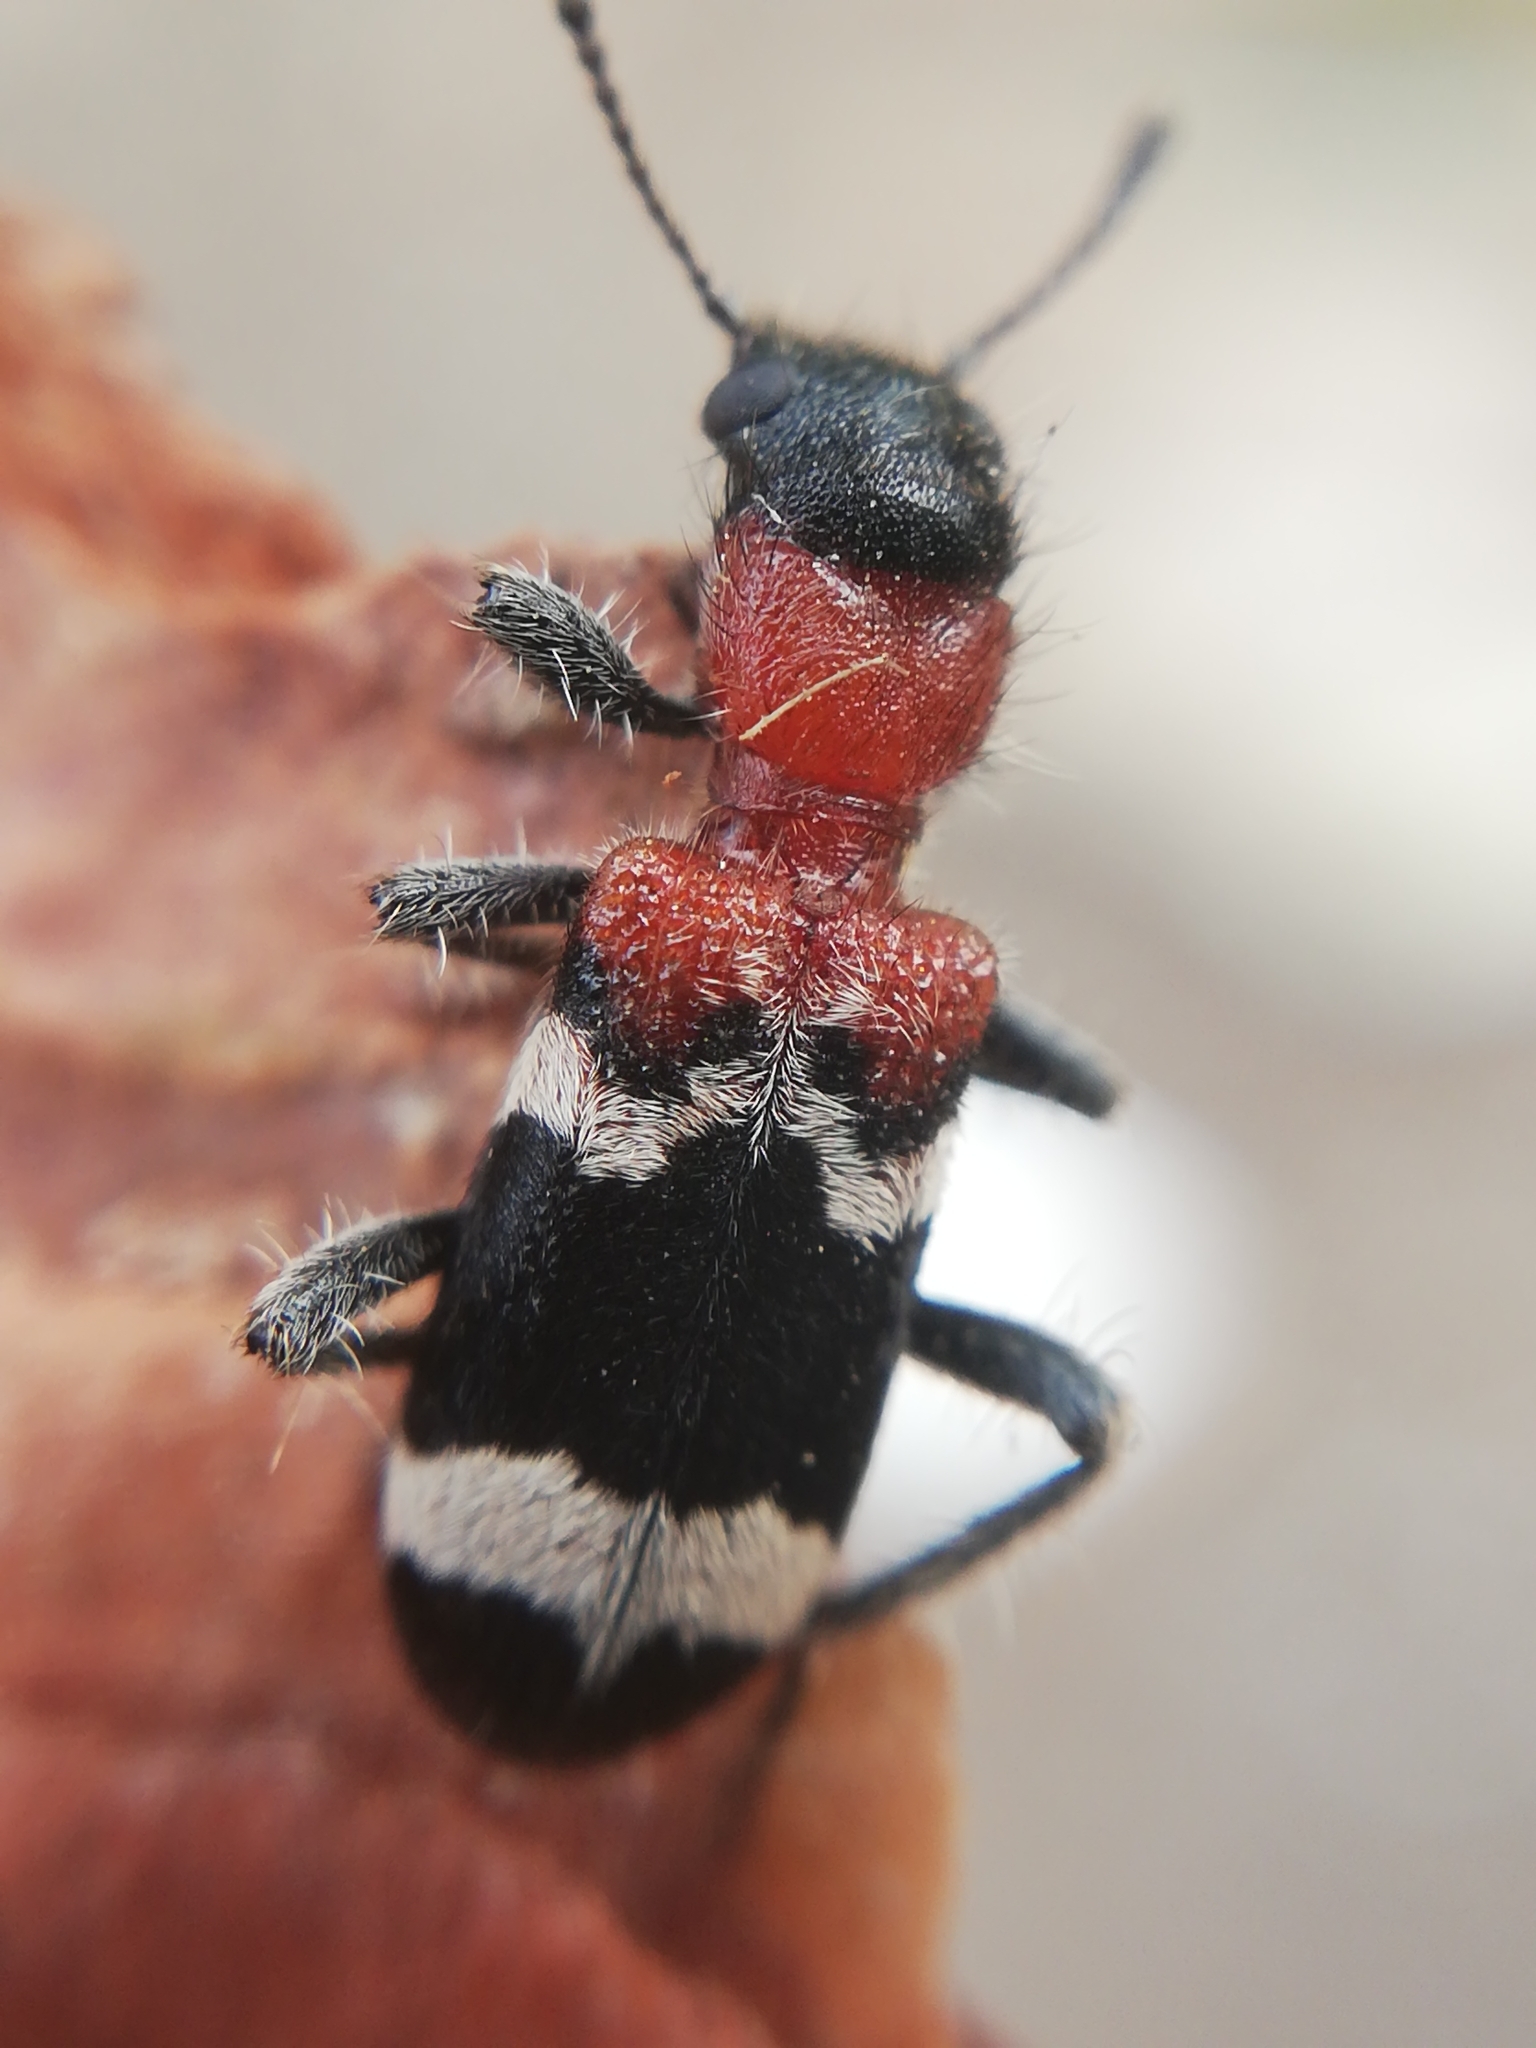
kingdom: Animalia
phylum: Arthropoda
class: Insecta
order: Coleoptera
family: Cleridae
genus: Thanasimus
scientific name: Thanasimus formicarius
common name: Ant beetle
